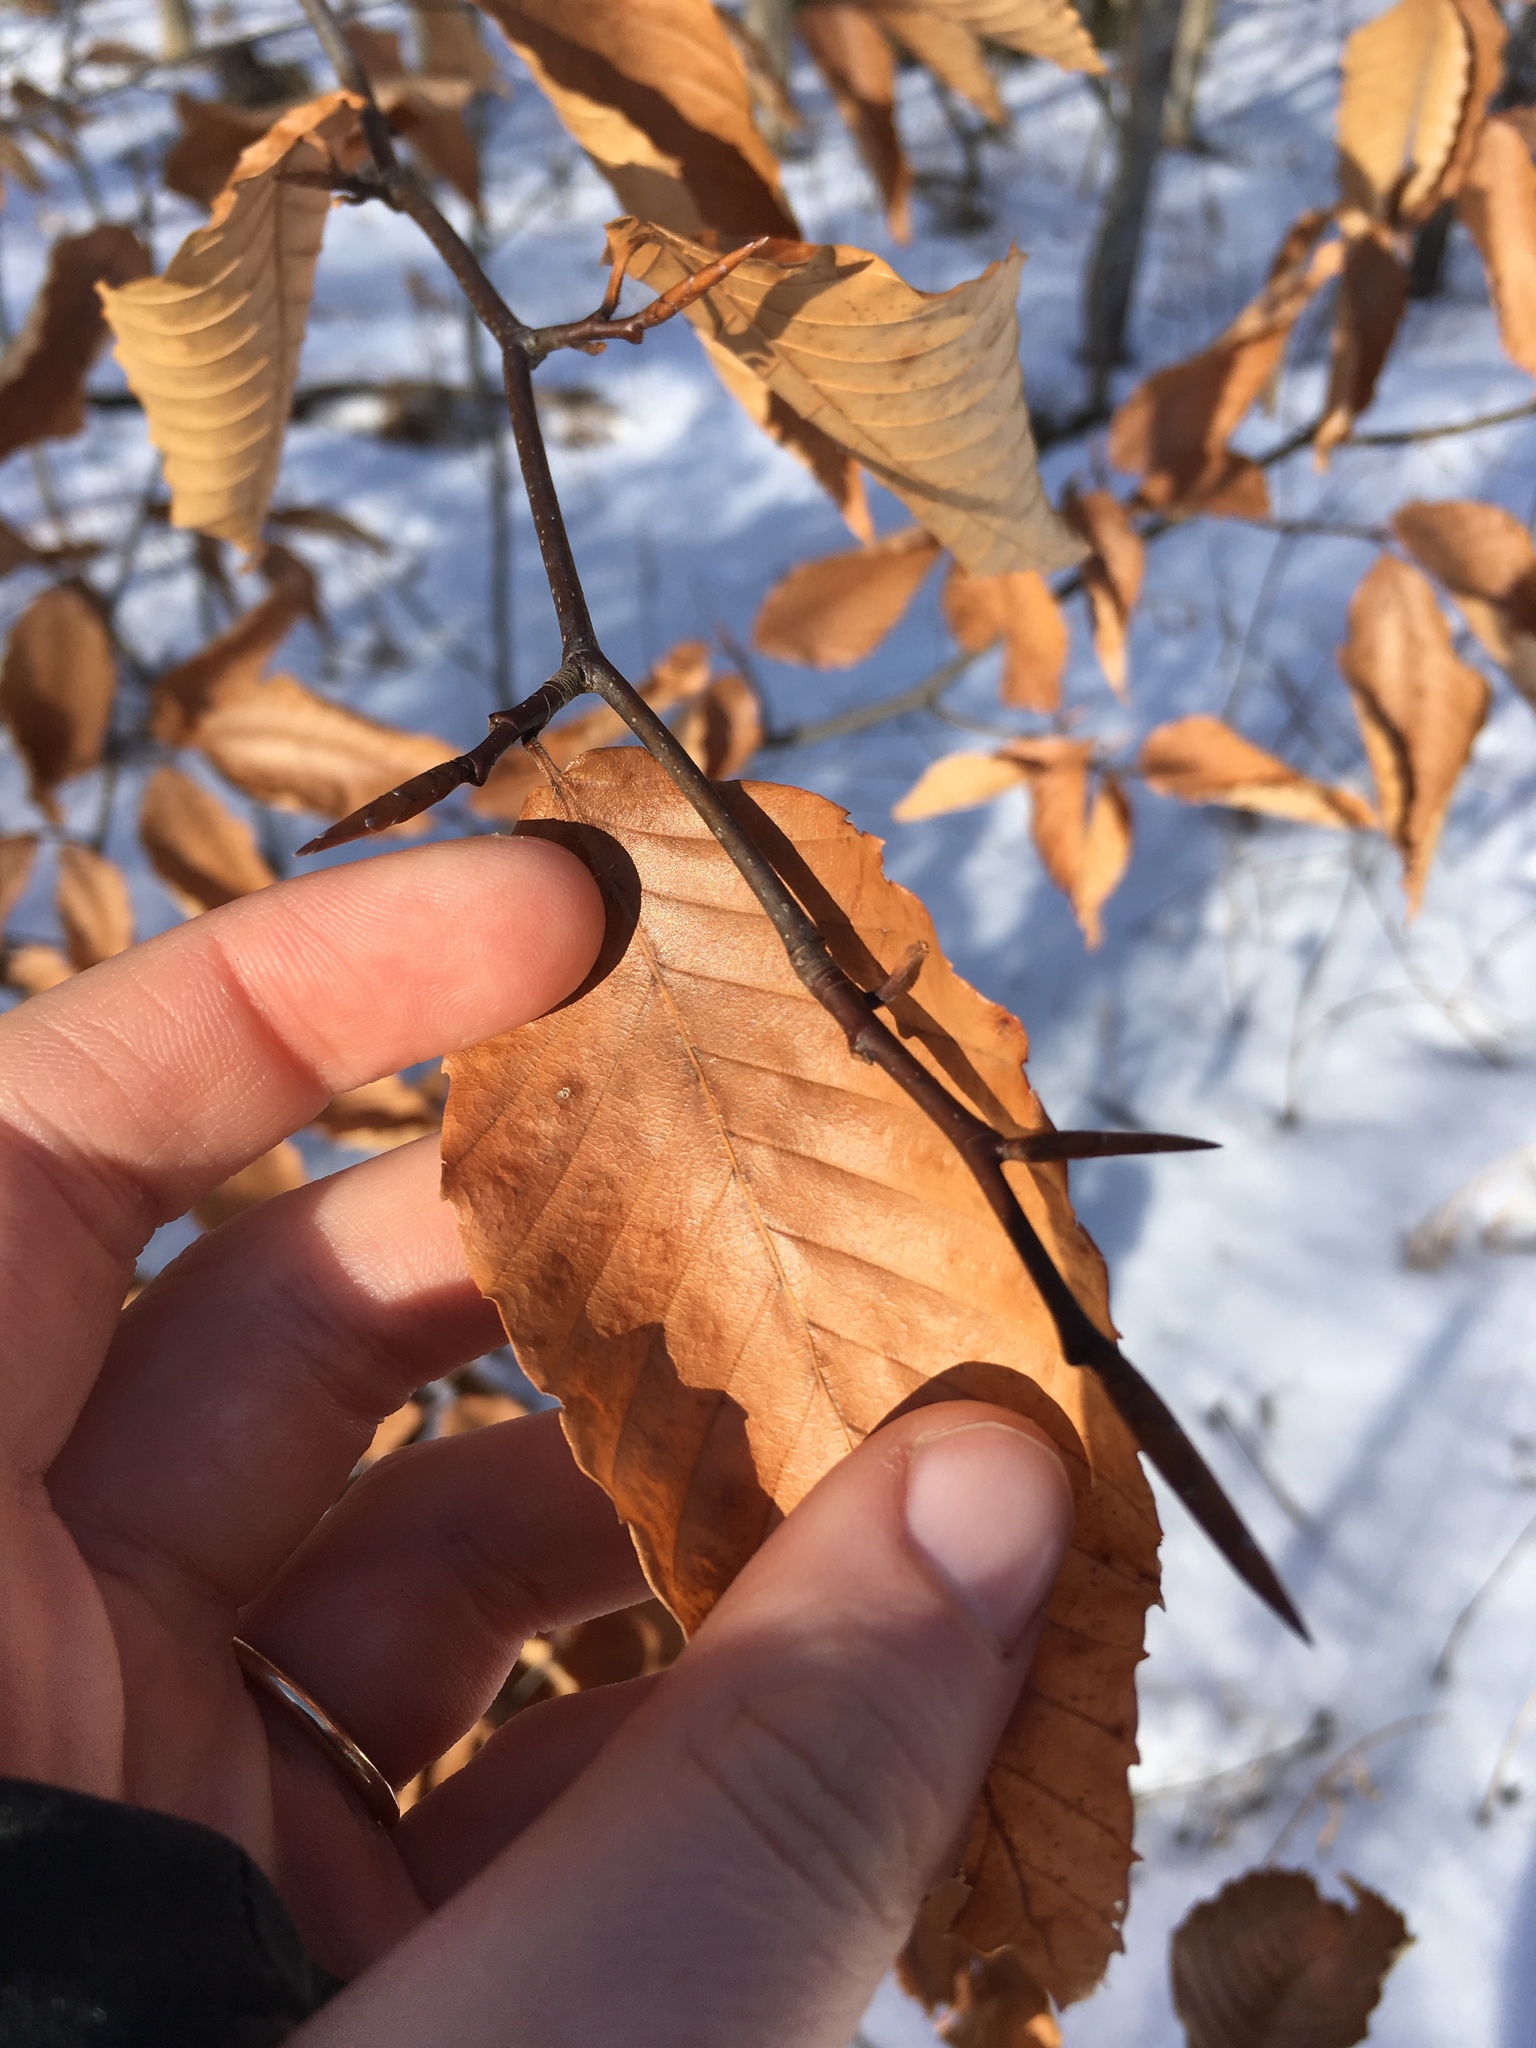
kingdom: Plantae
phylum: Tracheophyta
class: Magnoliopsida
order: Fagales
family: Fagaceae
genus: Fagus
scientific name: Fagus grandifolia
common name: American beech
